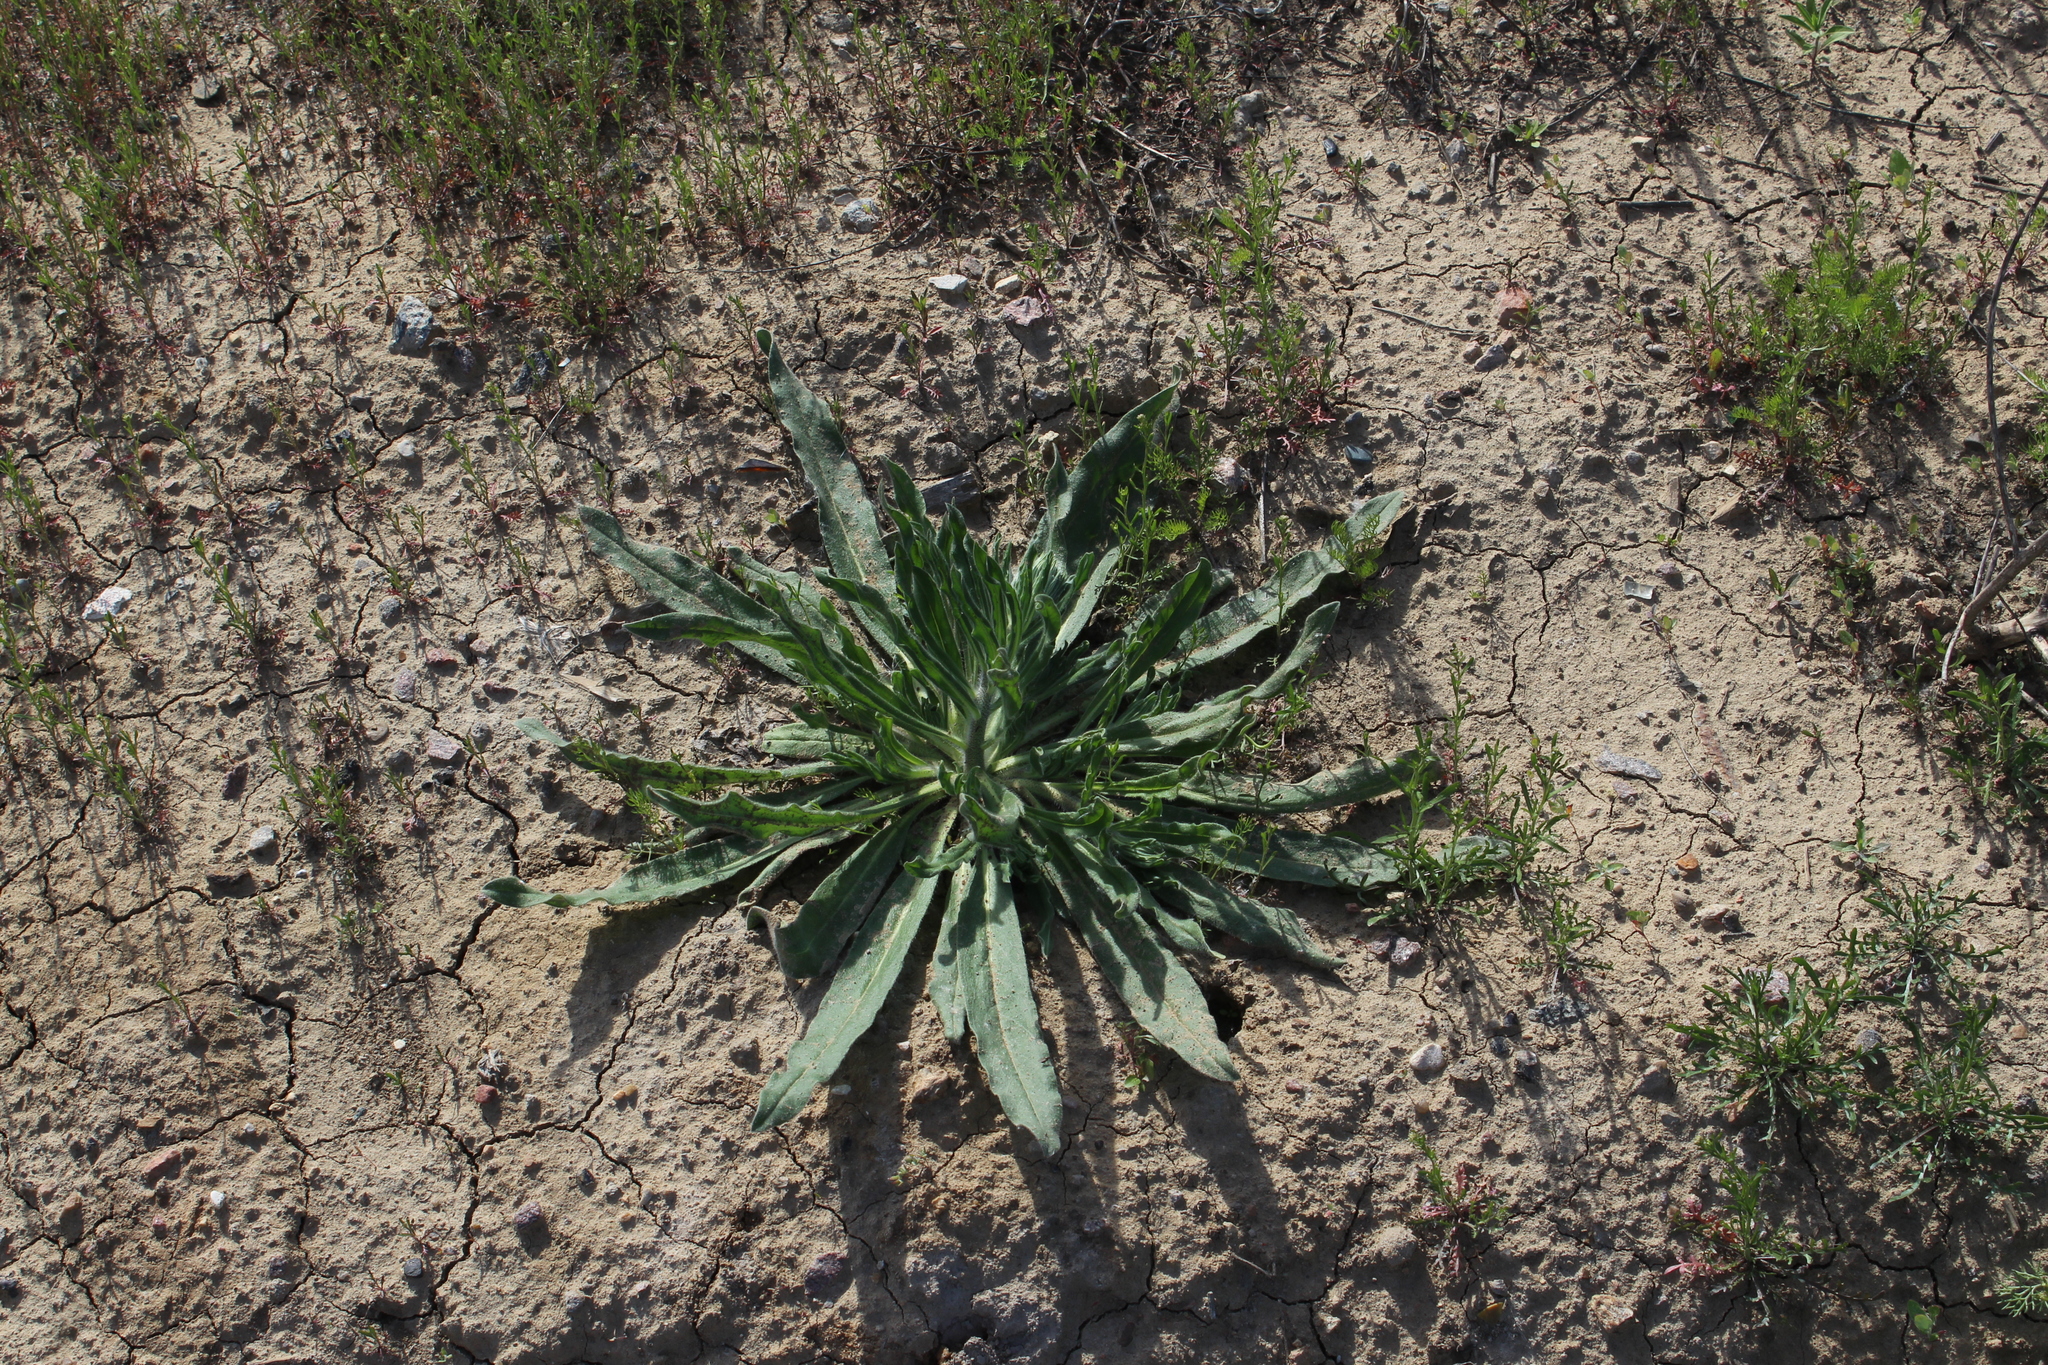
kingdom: Plantae
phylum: Tracheophyta
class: Magnoliopsida
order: Boraginales
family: Boraginaceae
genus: Echium
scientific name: Echium vulgare
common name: Common viper's bugloss
